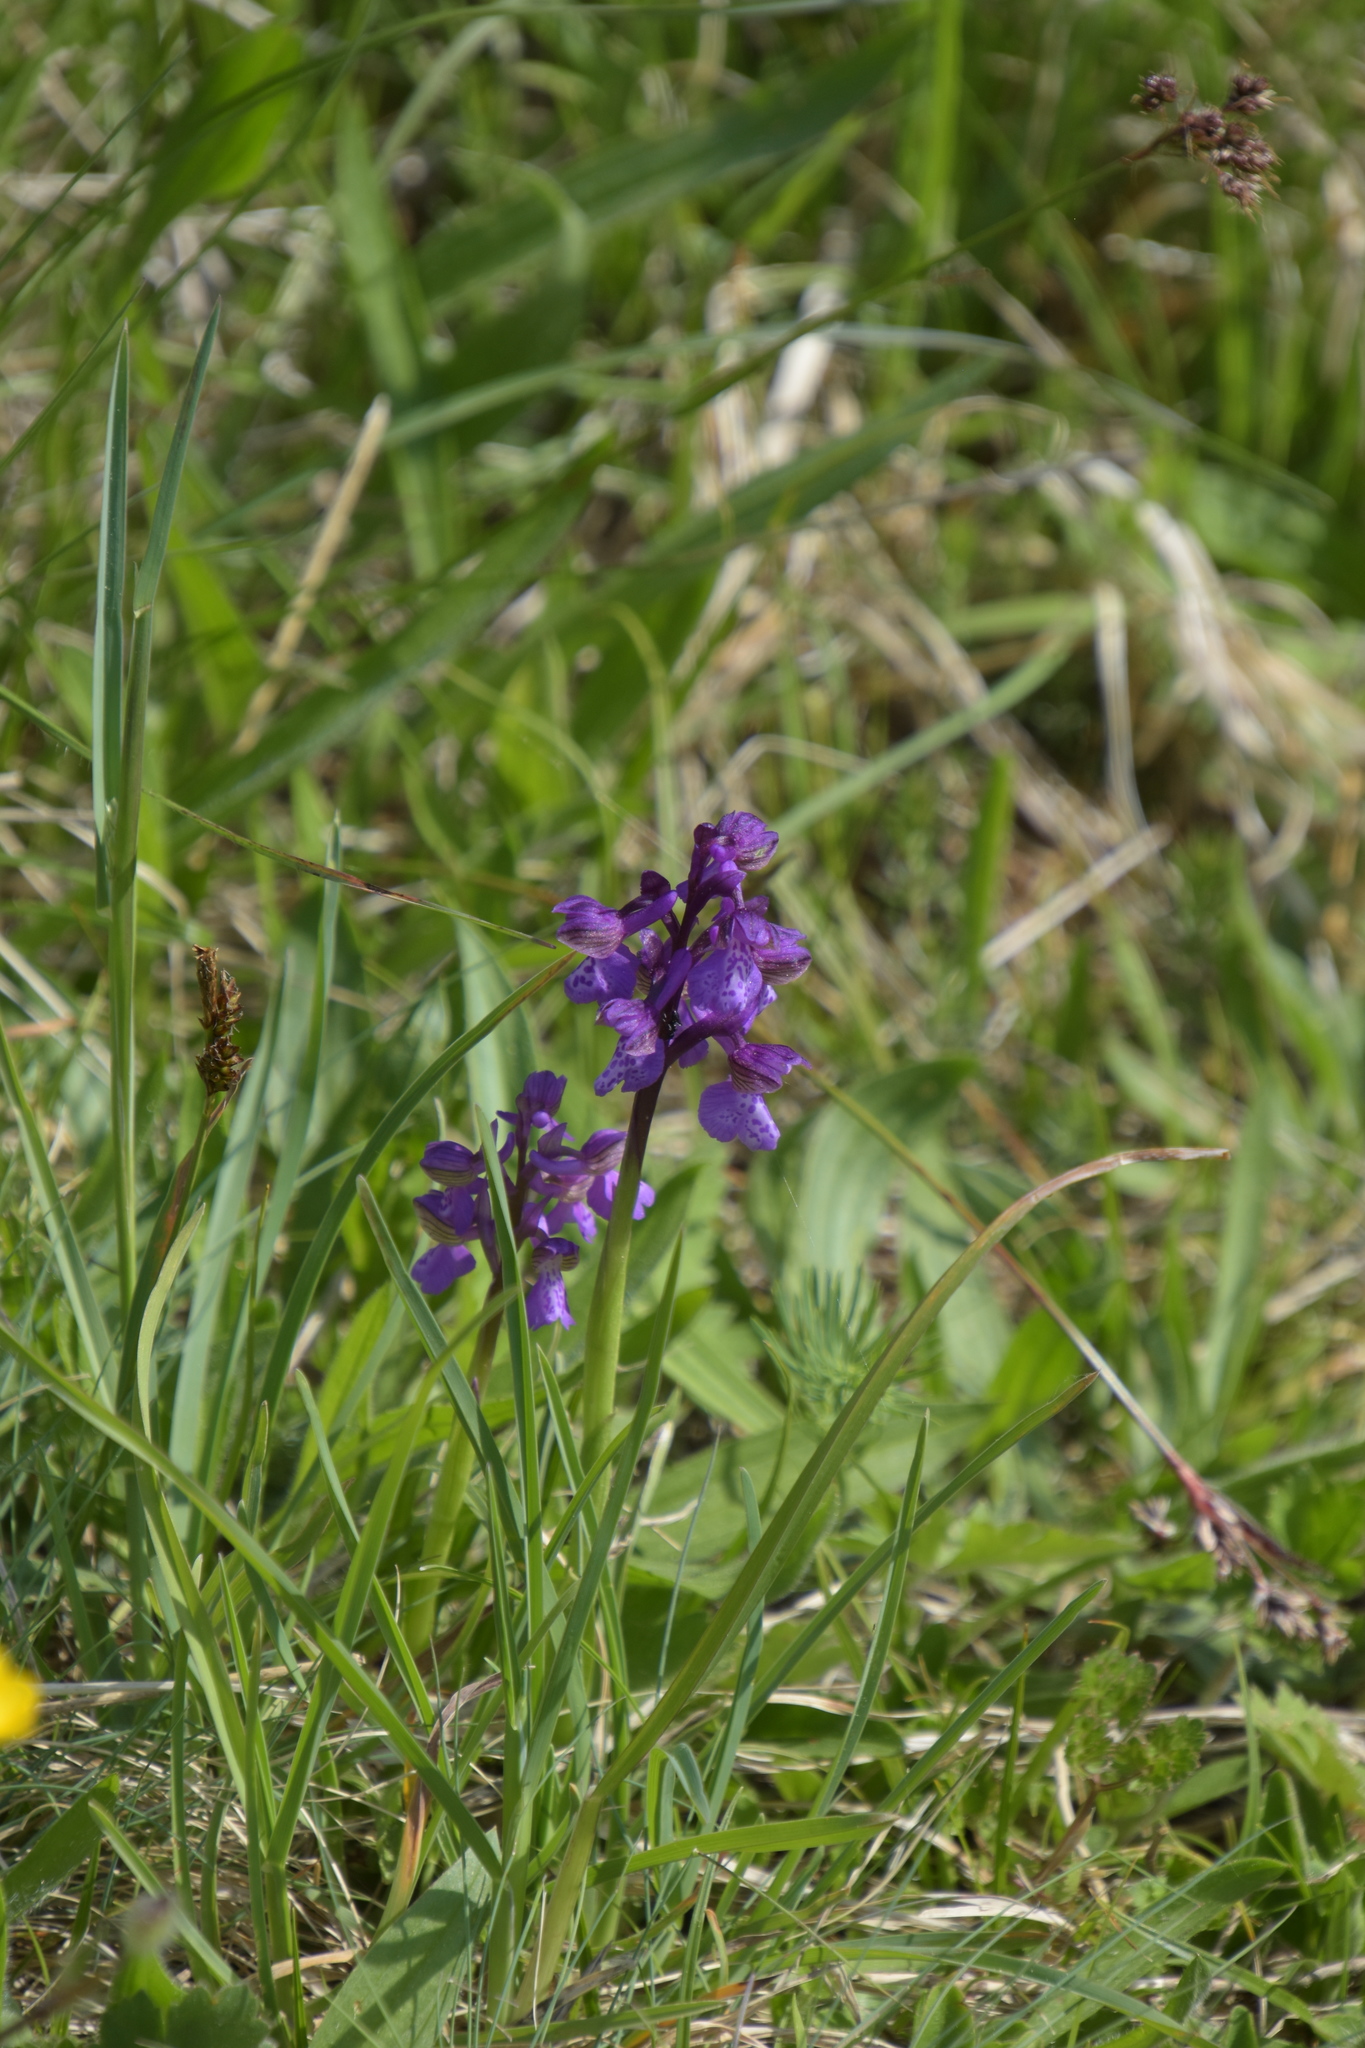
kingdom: Plantae
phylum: Tracheophyta
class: Liliopsida
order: Asparagales
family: Orchidaceae
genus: Anacamptis
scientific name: Anacamptis morio
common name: Green-winged orchid
